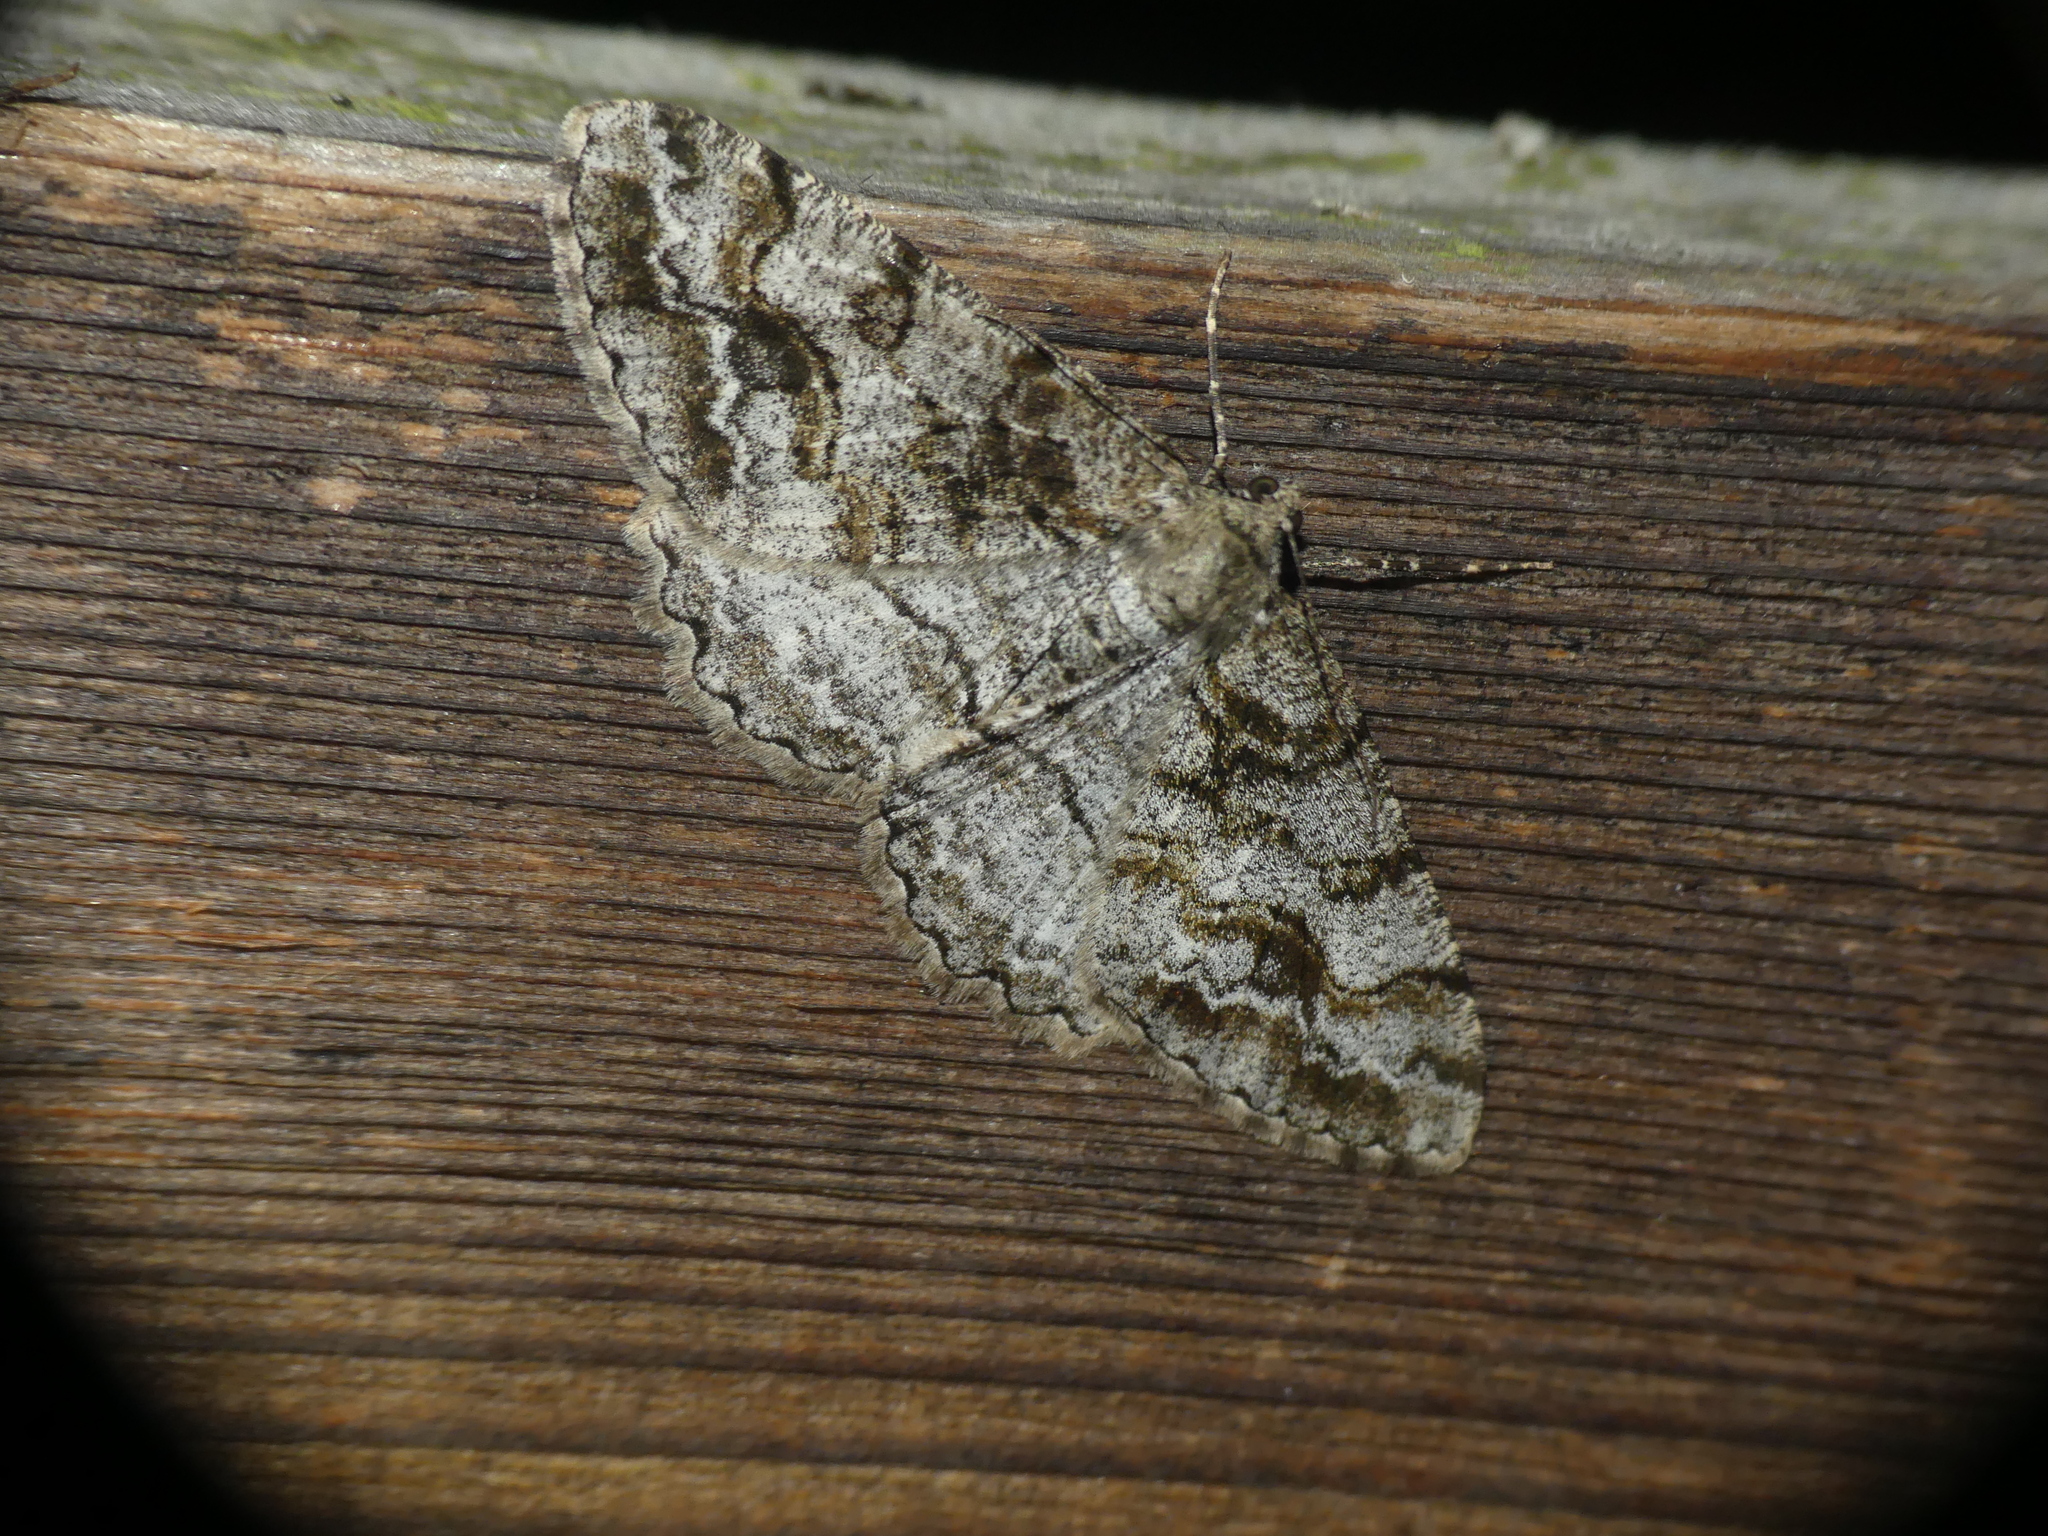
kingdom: Animalia
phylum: Arthropoda
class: Insecta
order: Lepidoptera
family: Geometridae
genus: Alcis
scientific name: Alcis repandata
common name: Mottled beauty
